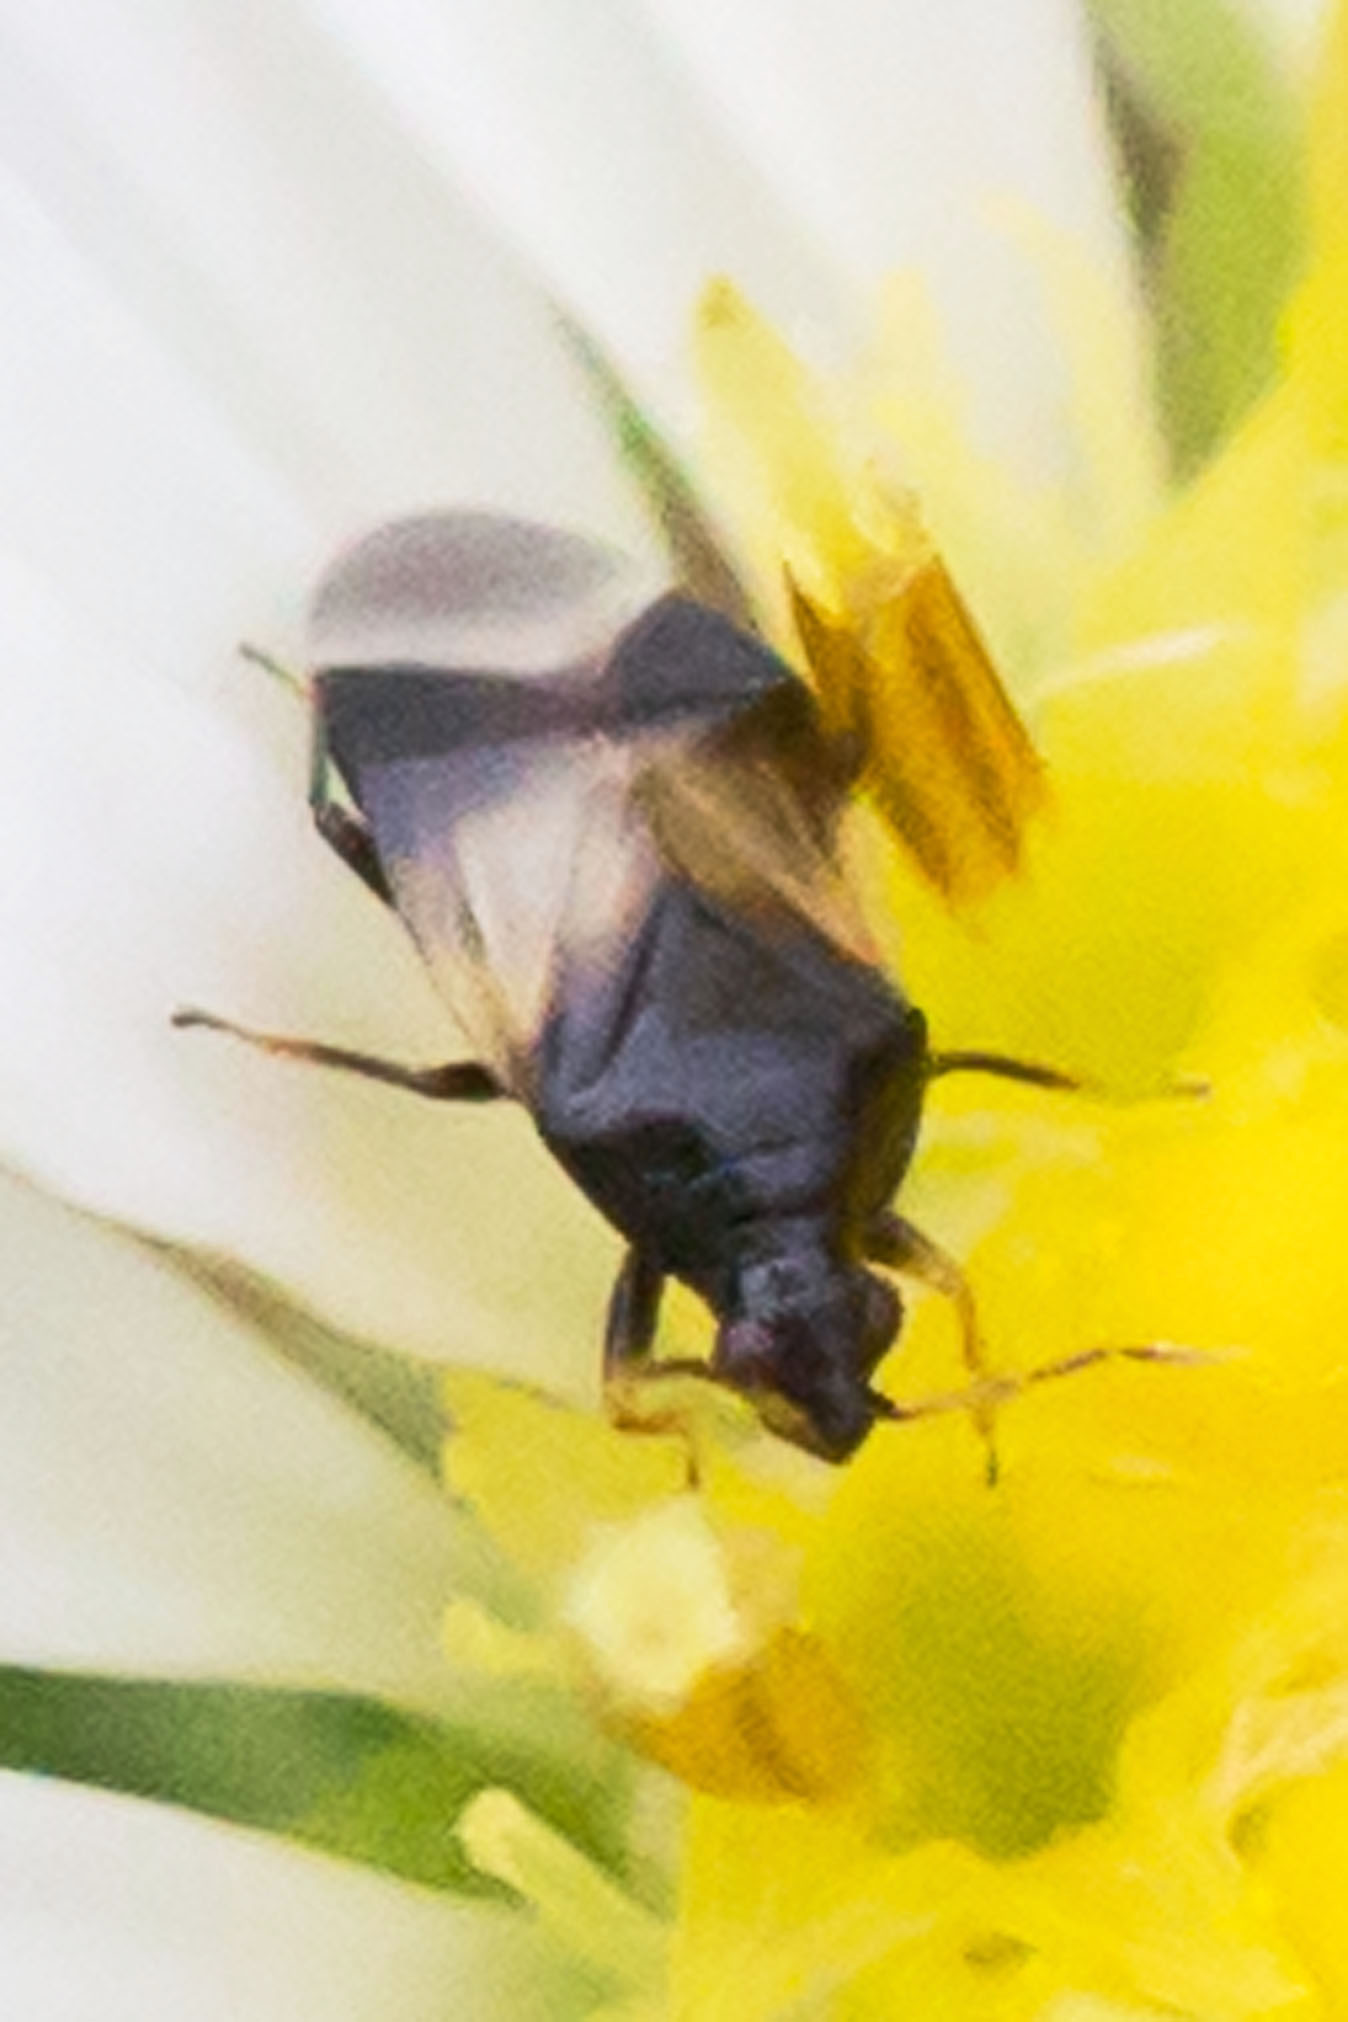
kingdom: Animalia
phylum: Arthropoda
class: Insecta
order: Hemiptera
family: Anthocoridae
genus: Orius
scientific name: Orius insidiosus
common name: Insidious flower bug
